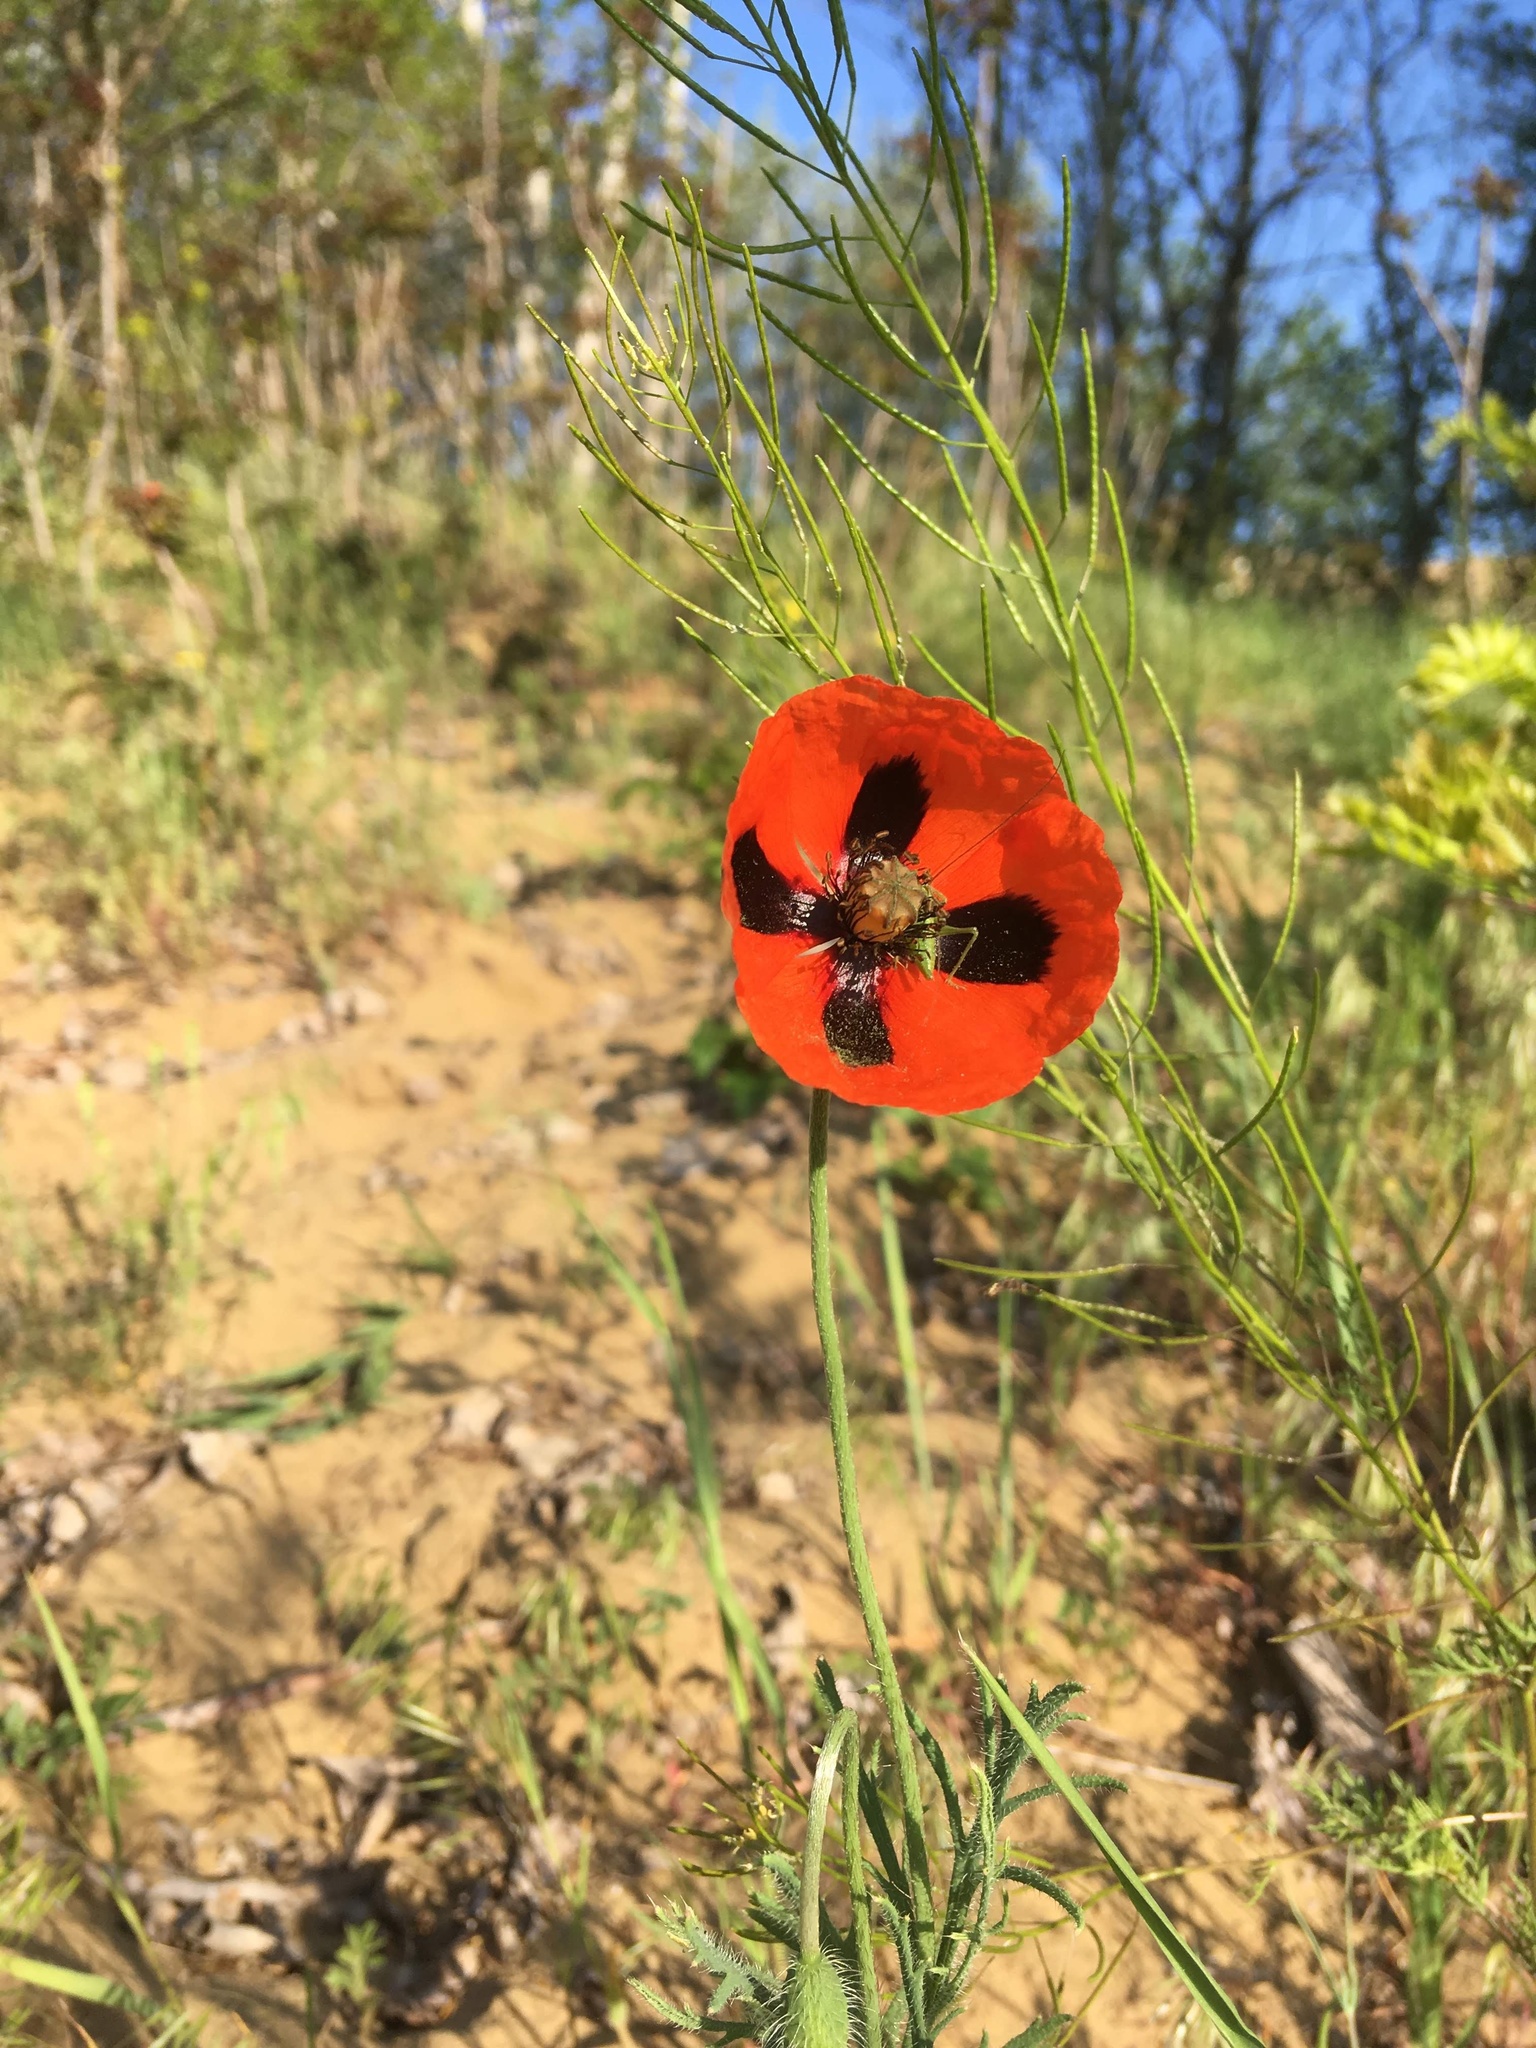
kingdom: Plantae
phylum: Tracheophyta
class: Magnoliopsida
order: Ranunculales
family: Papaveraceae
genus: Papaver
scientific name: Papaver dubium
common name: Long-headed poppy
